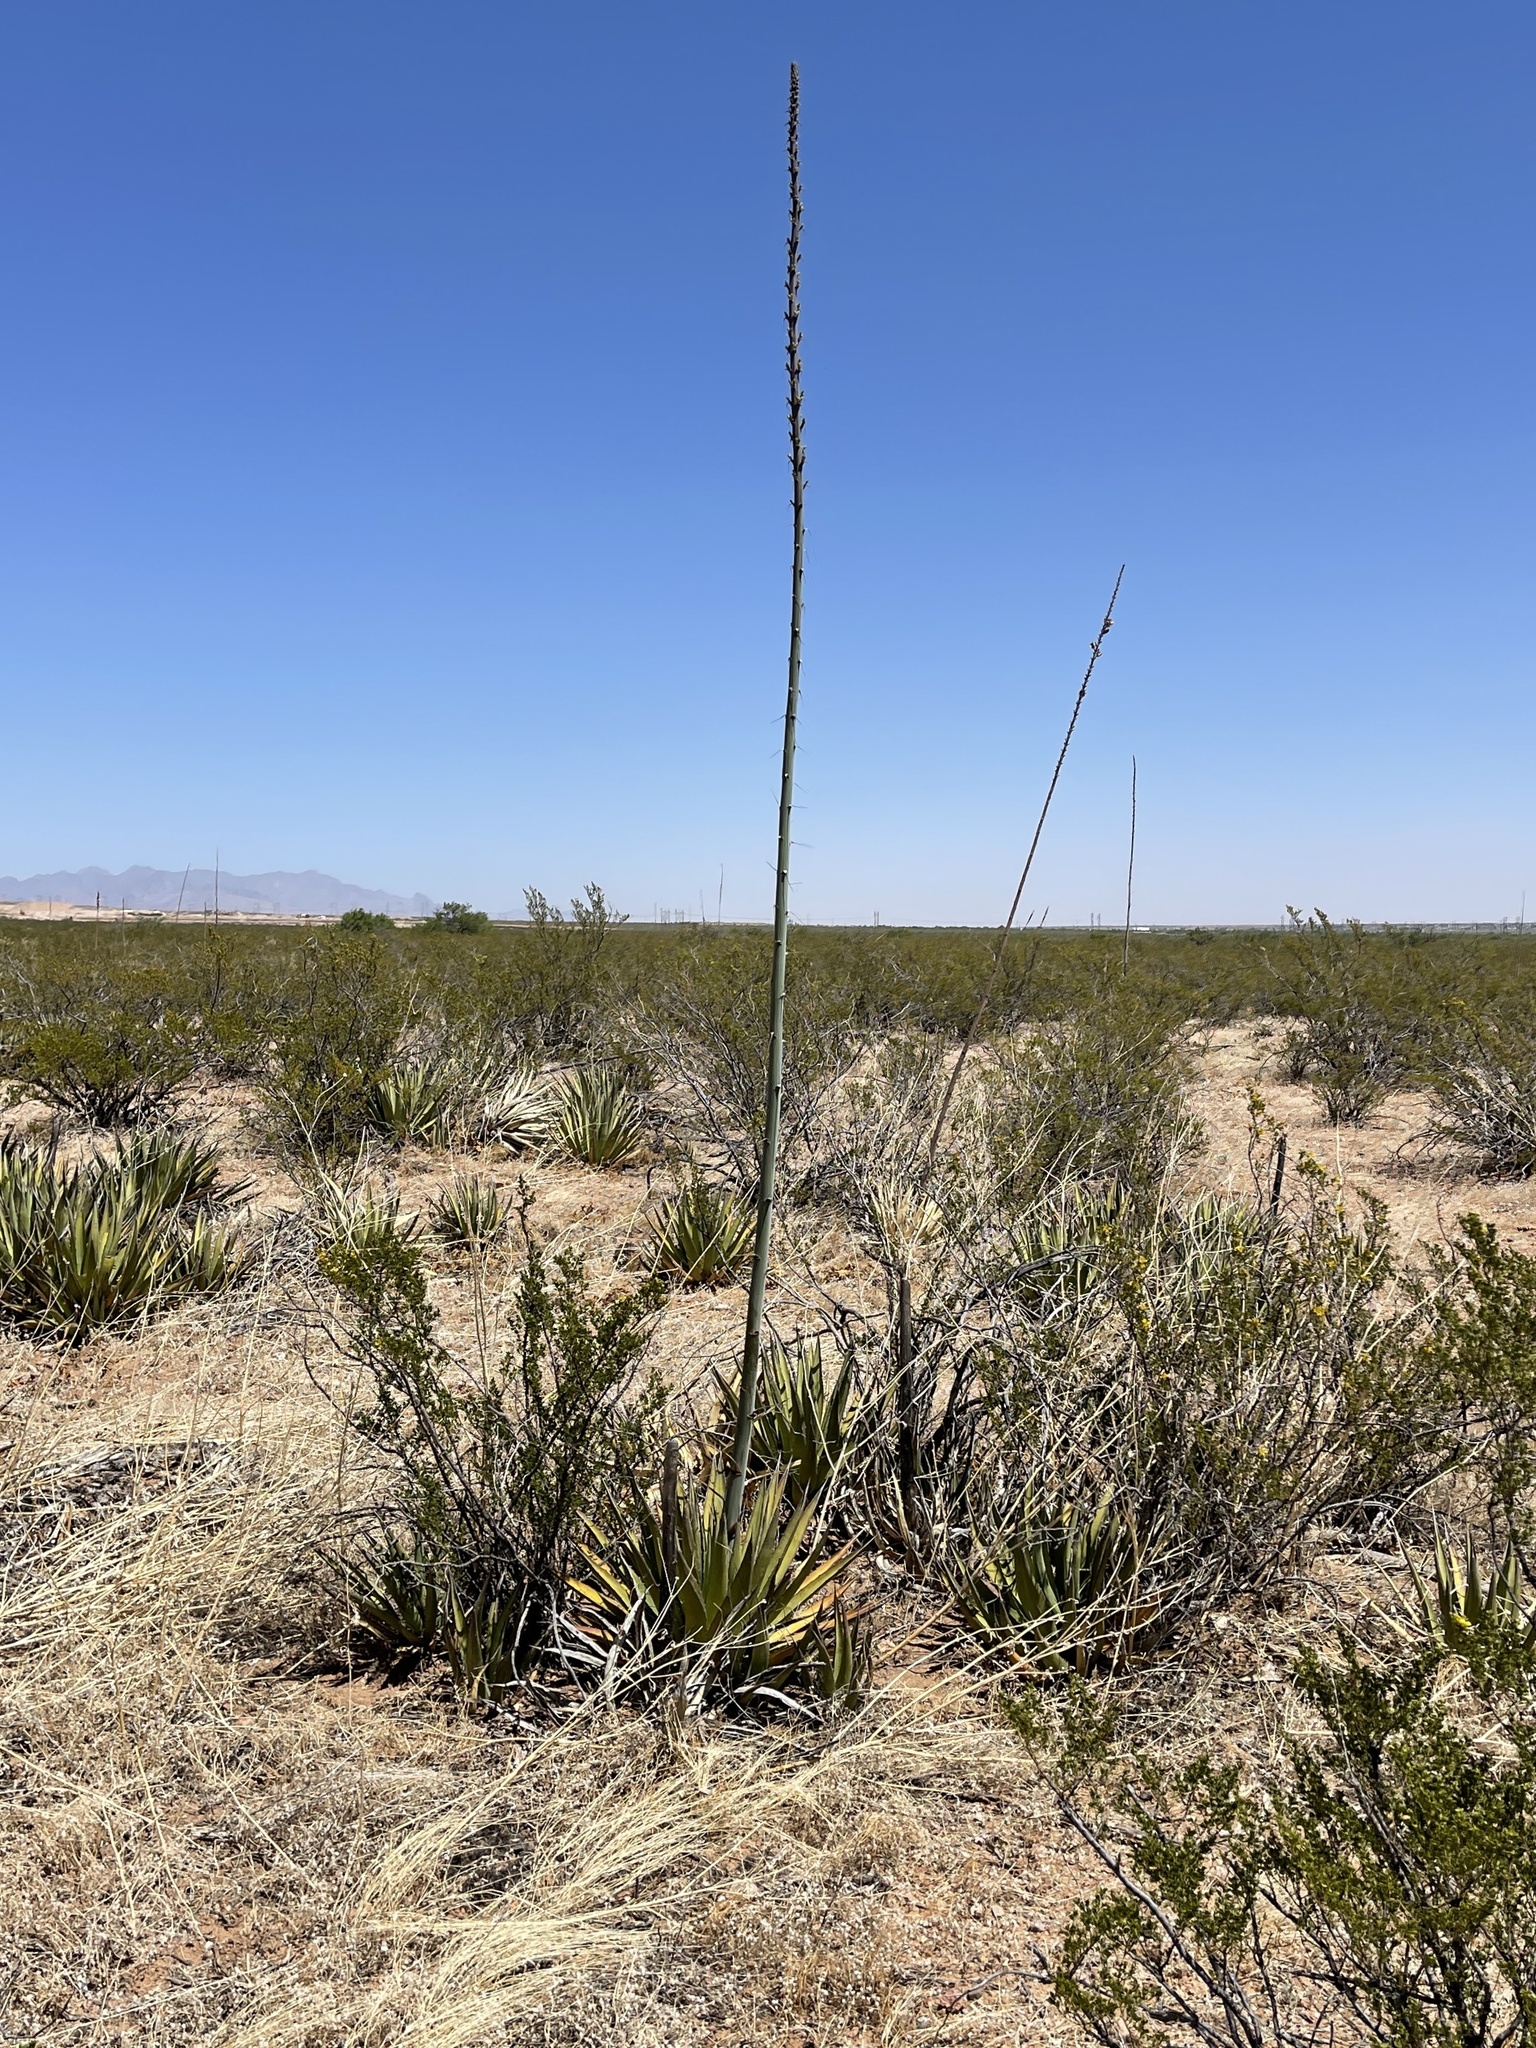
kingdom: Plantae
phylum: Tracheophyta
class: Liliopsida
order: Asparagales
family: Asparagaceae
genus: Agave
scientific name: Agave lechuguilla
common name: Lecheguilla agave
